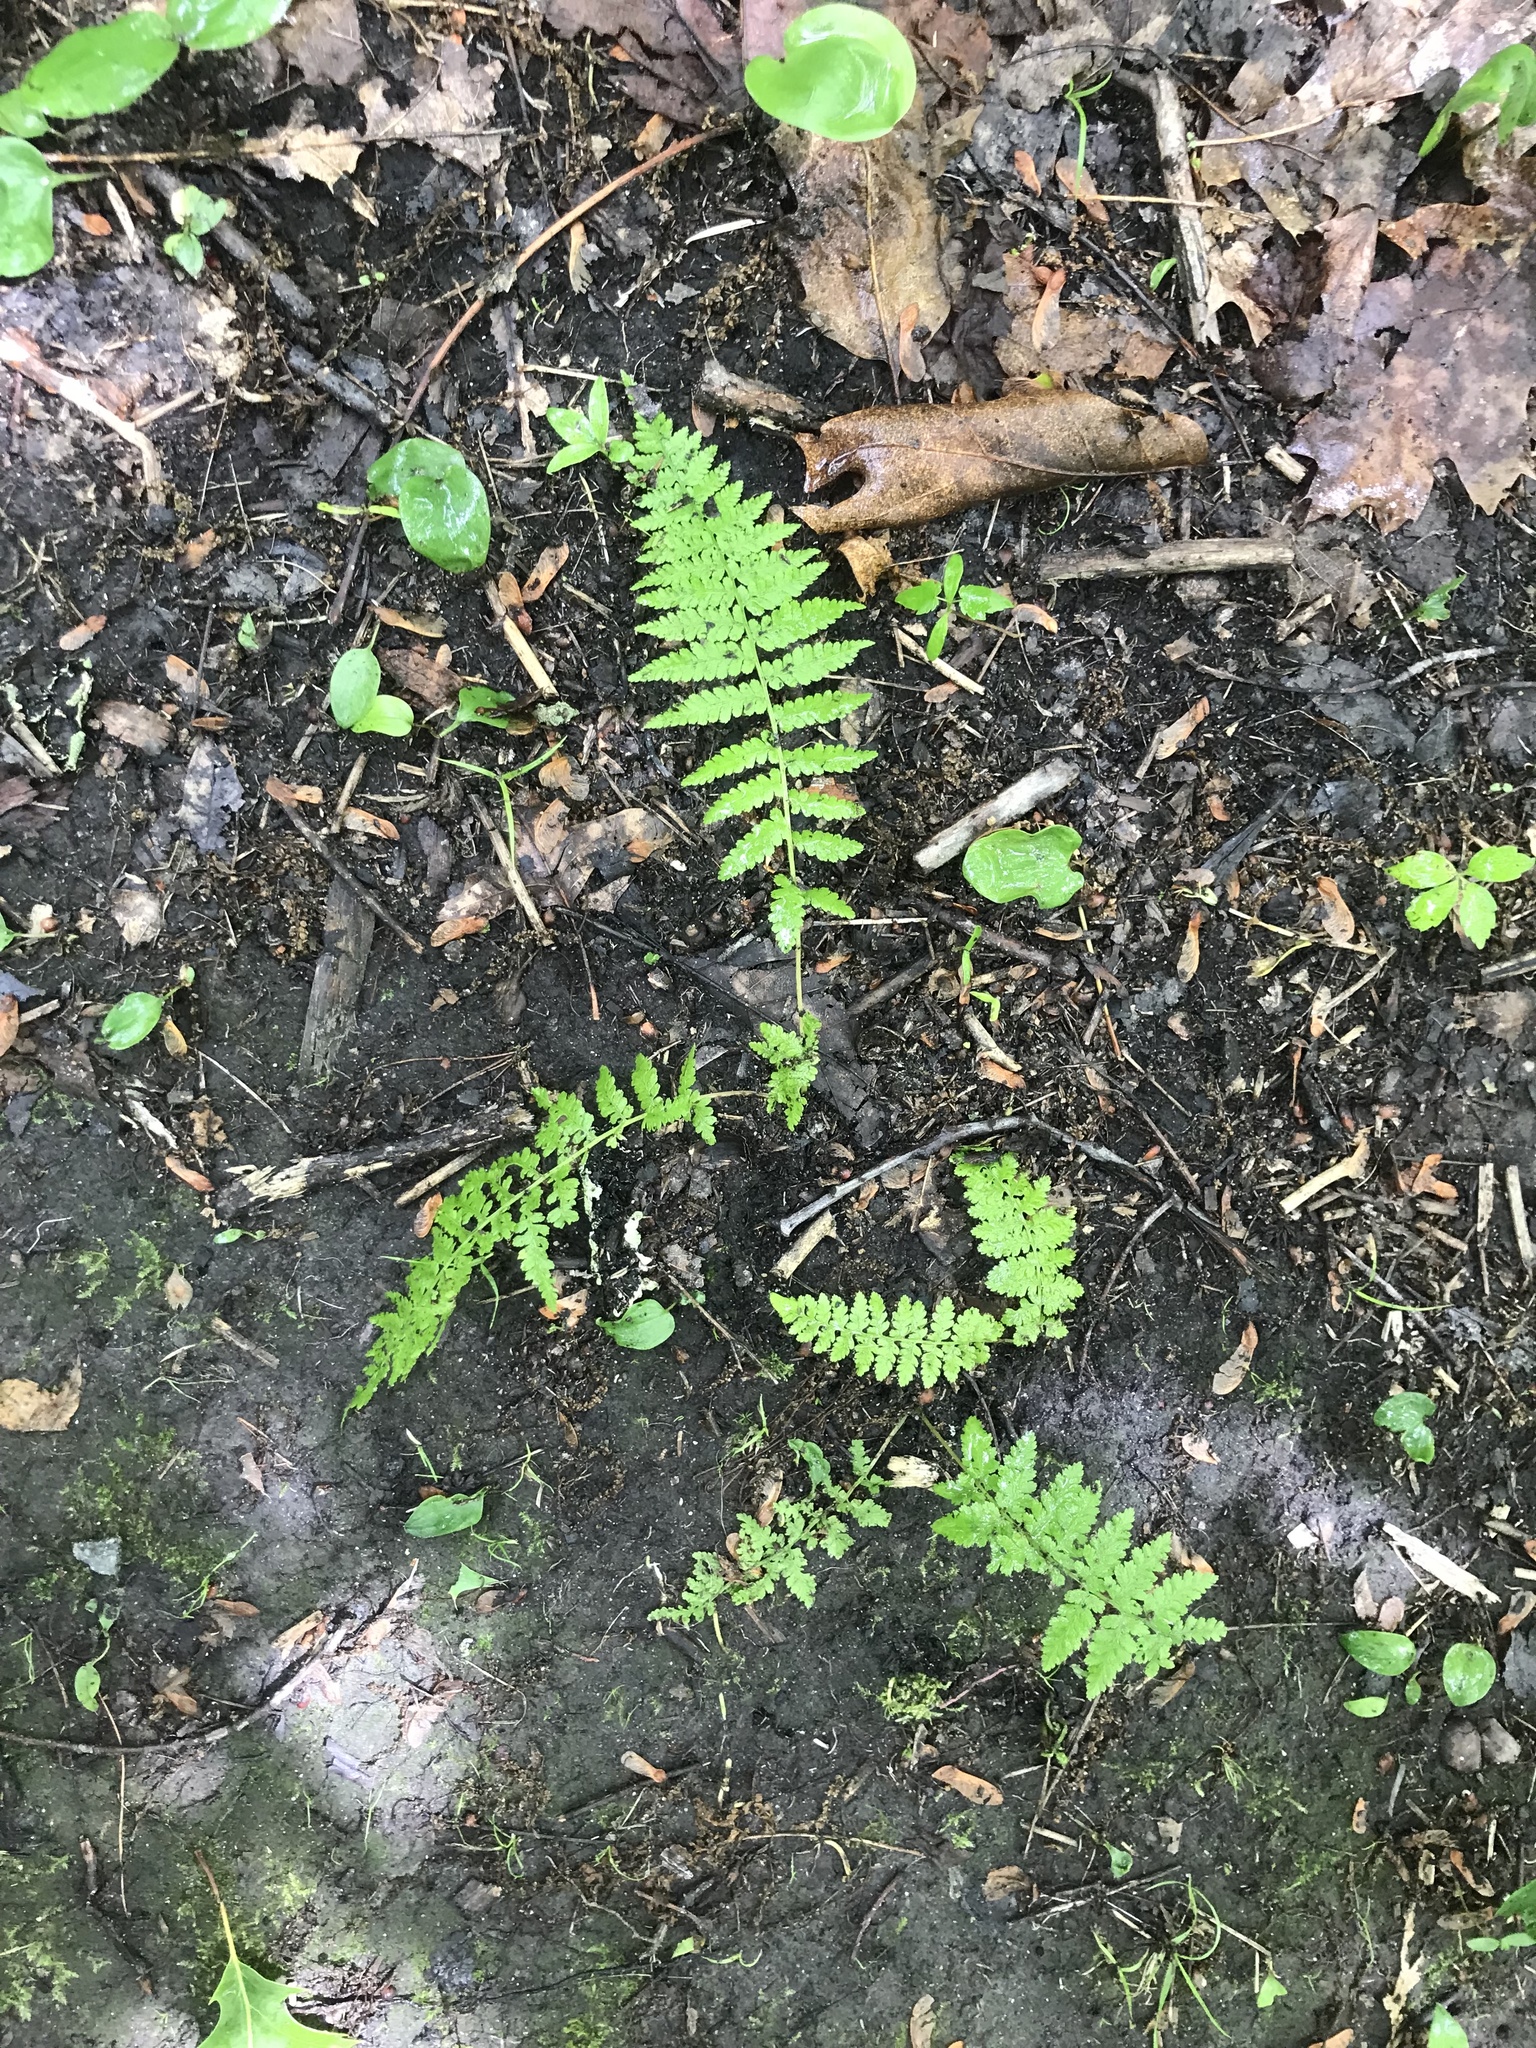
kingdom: Plantae
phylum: Tracheophyta
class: Polypodiopsida
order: Polypodiales
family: Athyriaceae
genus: Athyrium
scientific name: Athyrium angustum
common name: Northern lady fern
